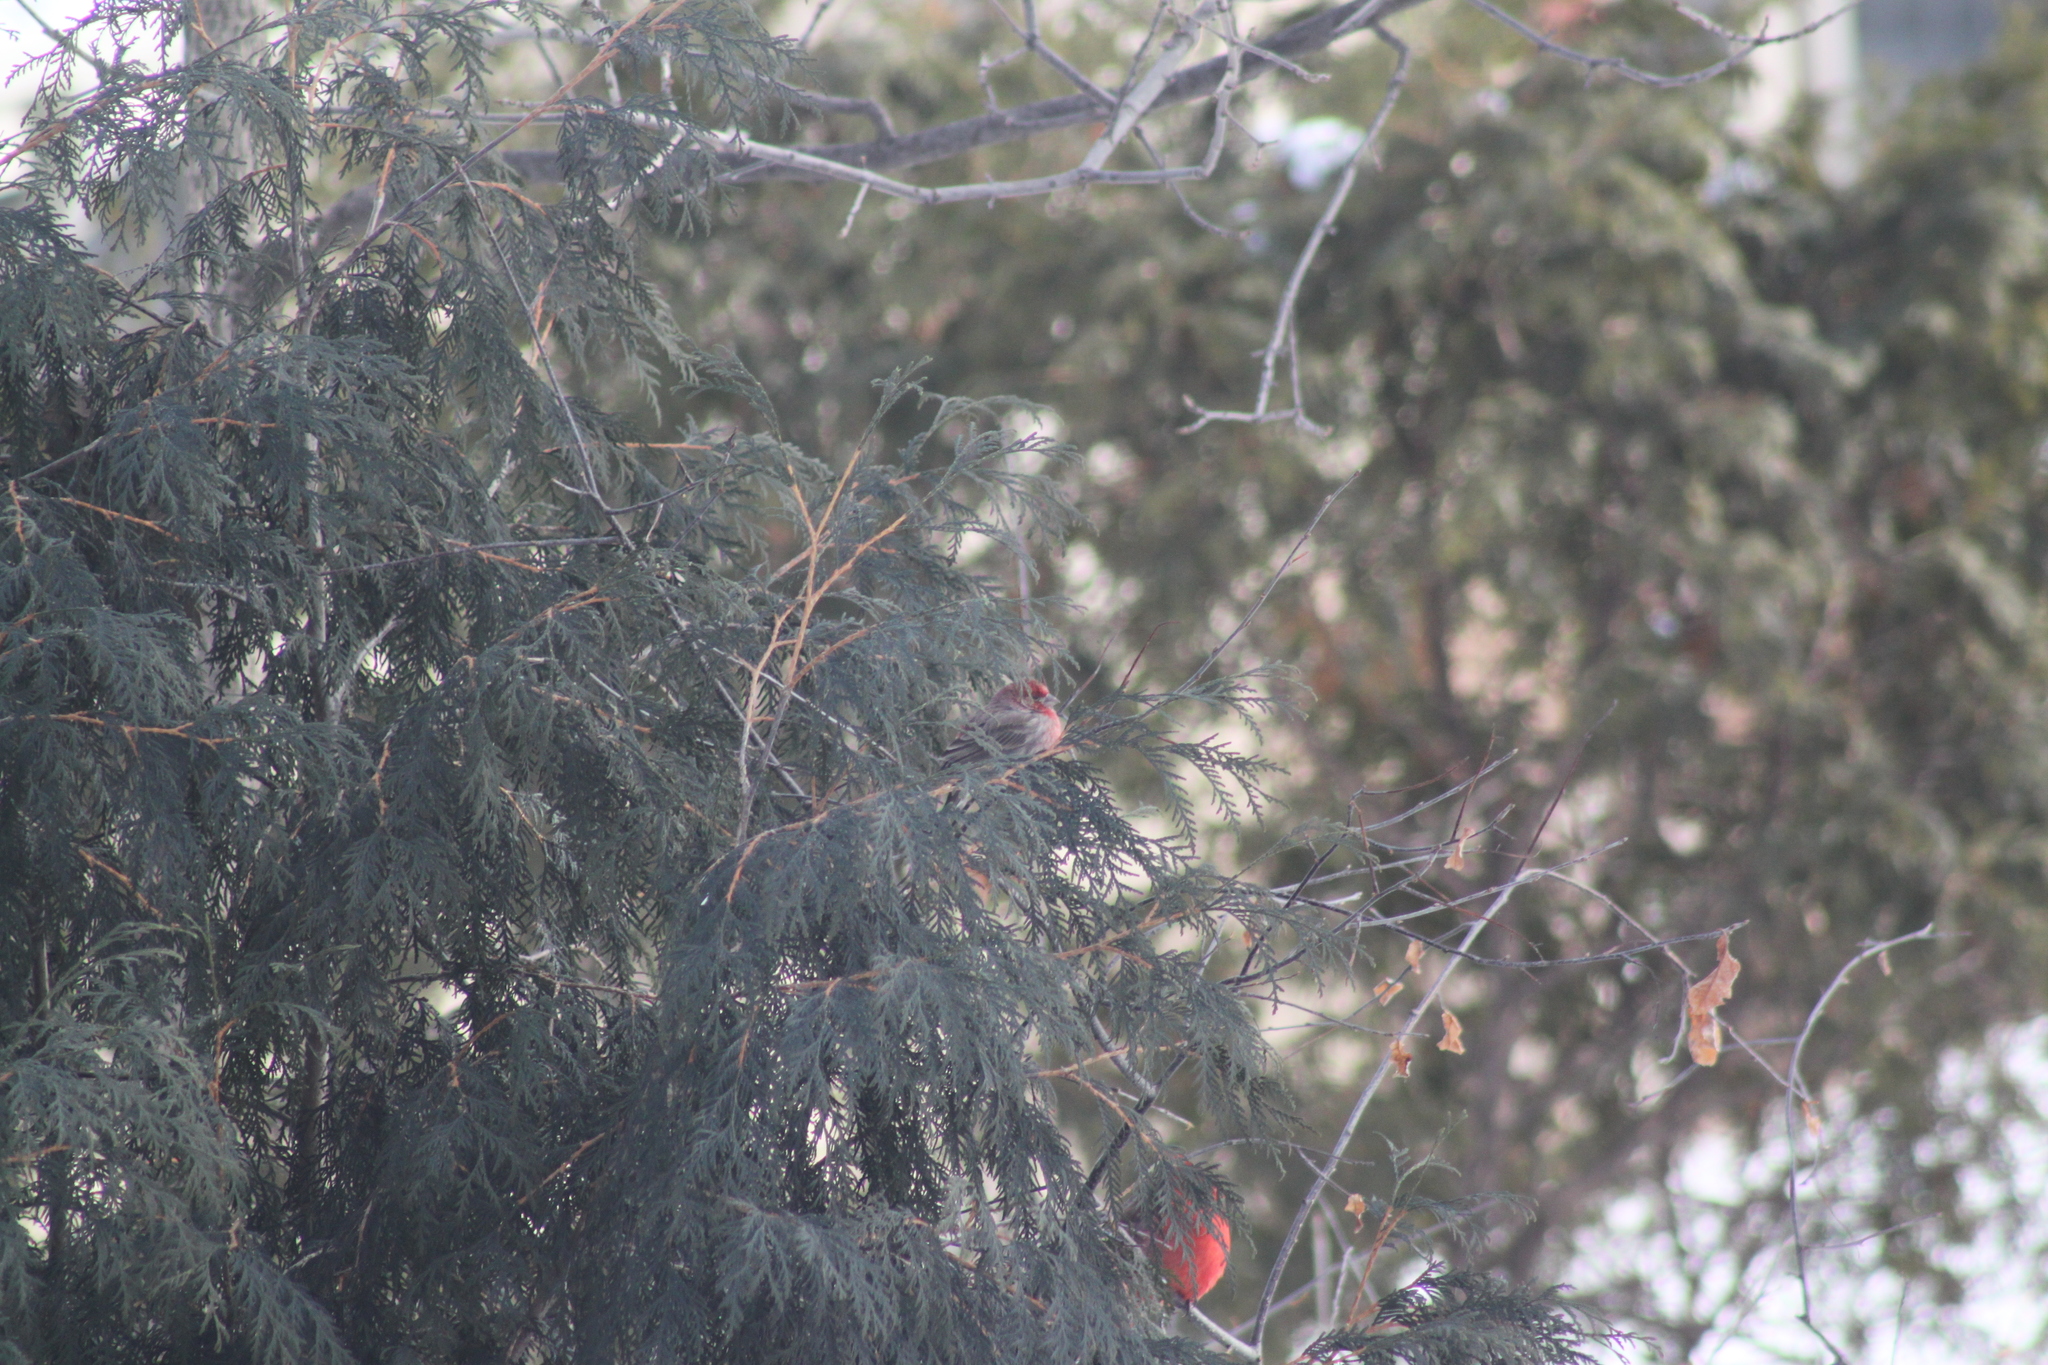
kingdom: Animalia
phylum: Chordata
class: Aves
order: Passeriformes
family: Fringillidae
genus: Haemorhous
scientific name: Haemorhous mexicanus
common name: House finch
